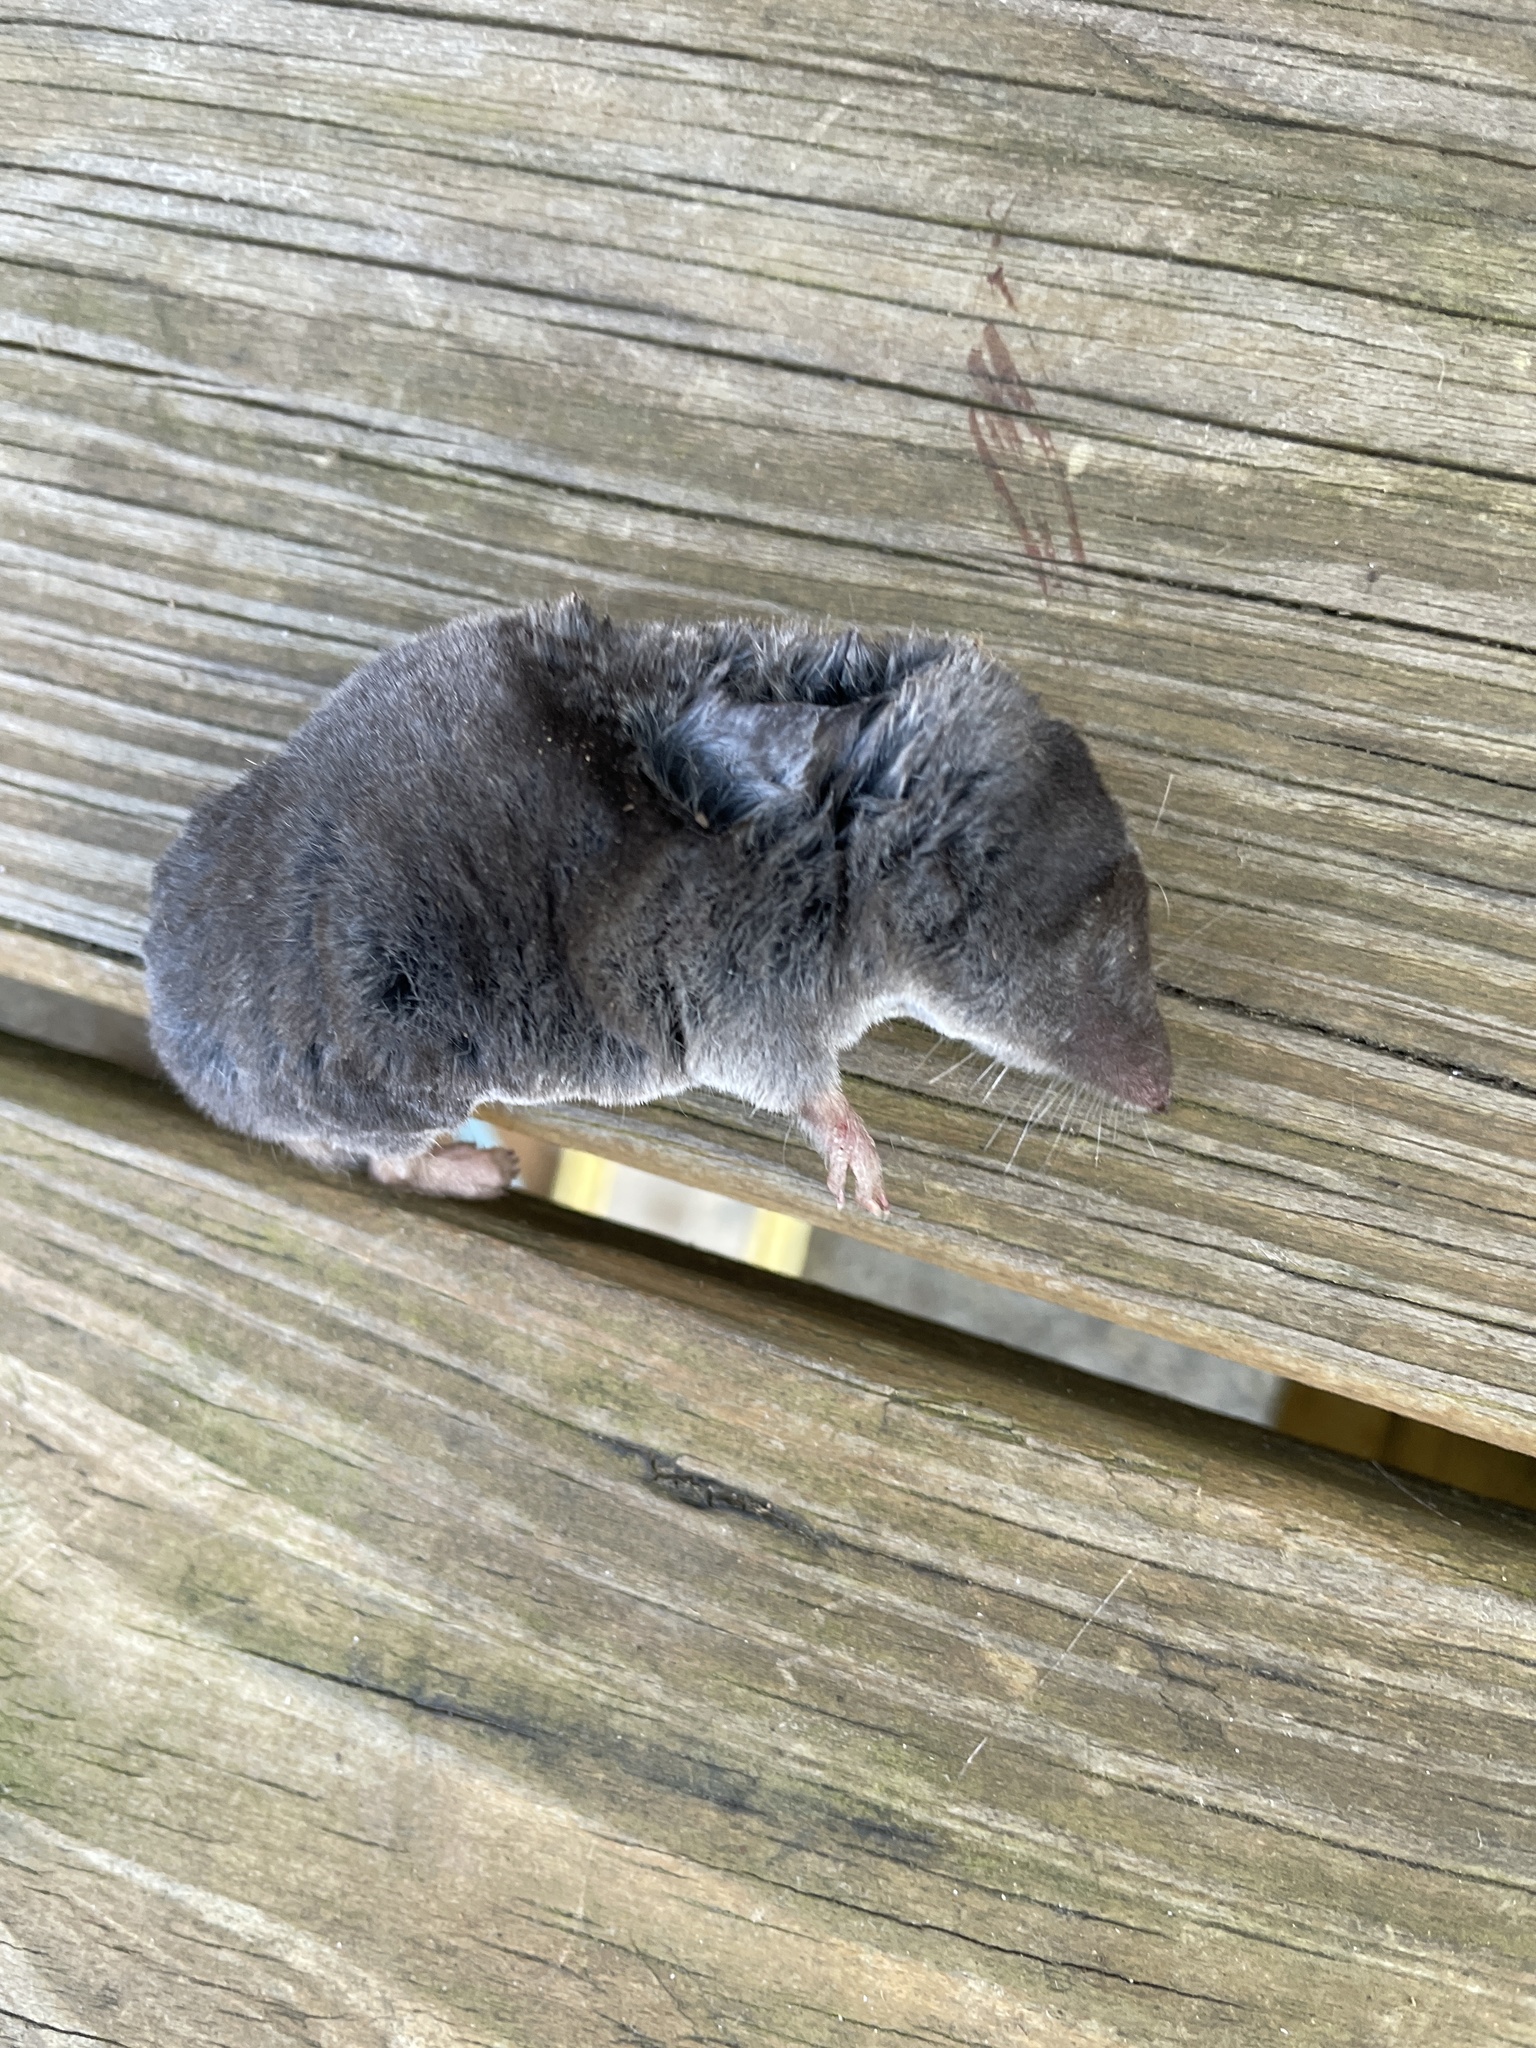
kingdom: Animalia
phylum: Chordata
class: Mammalia
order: Soricomorpha
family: Soricidae
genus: Blarina
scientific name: Blarina brevicauda
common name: Northern short-tailed shrew
